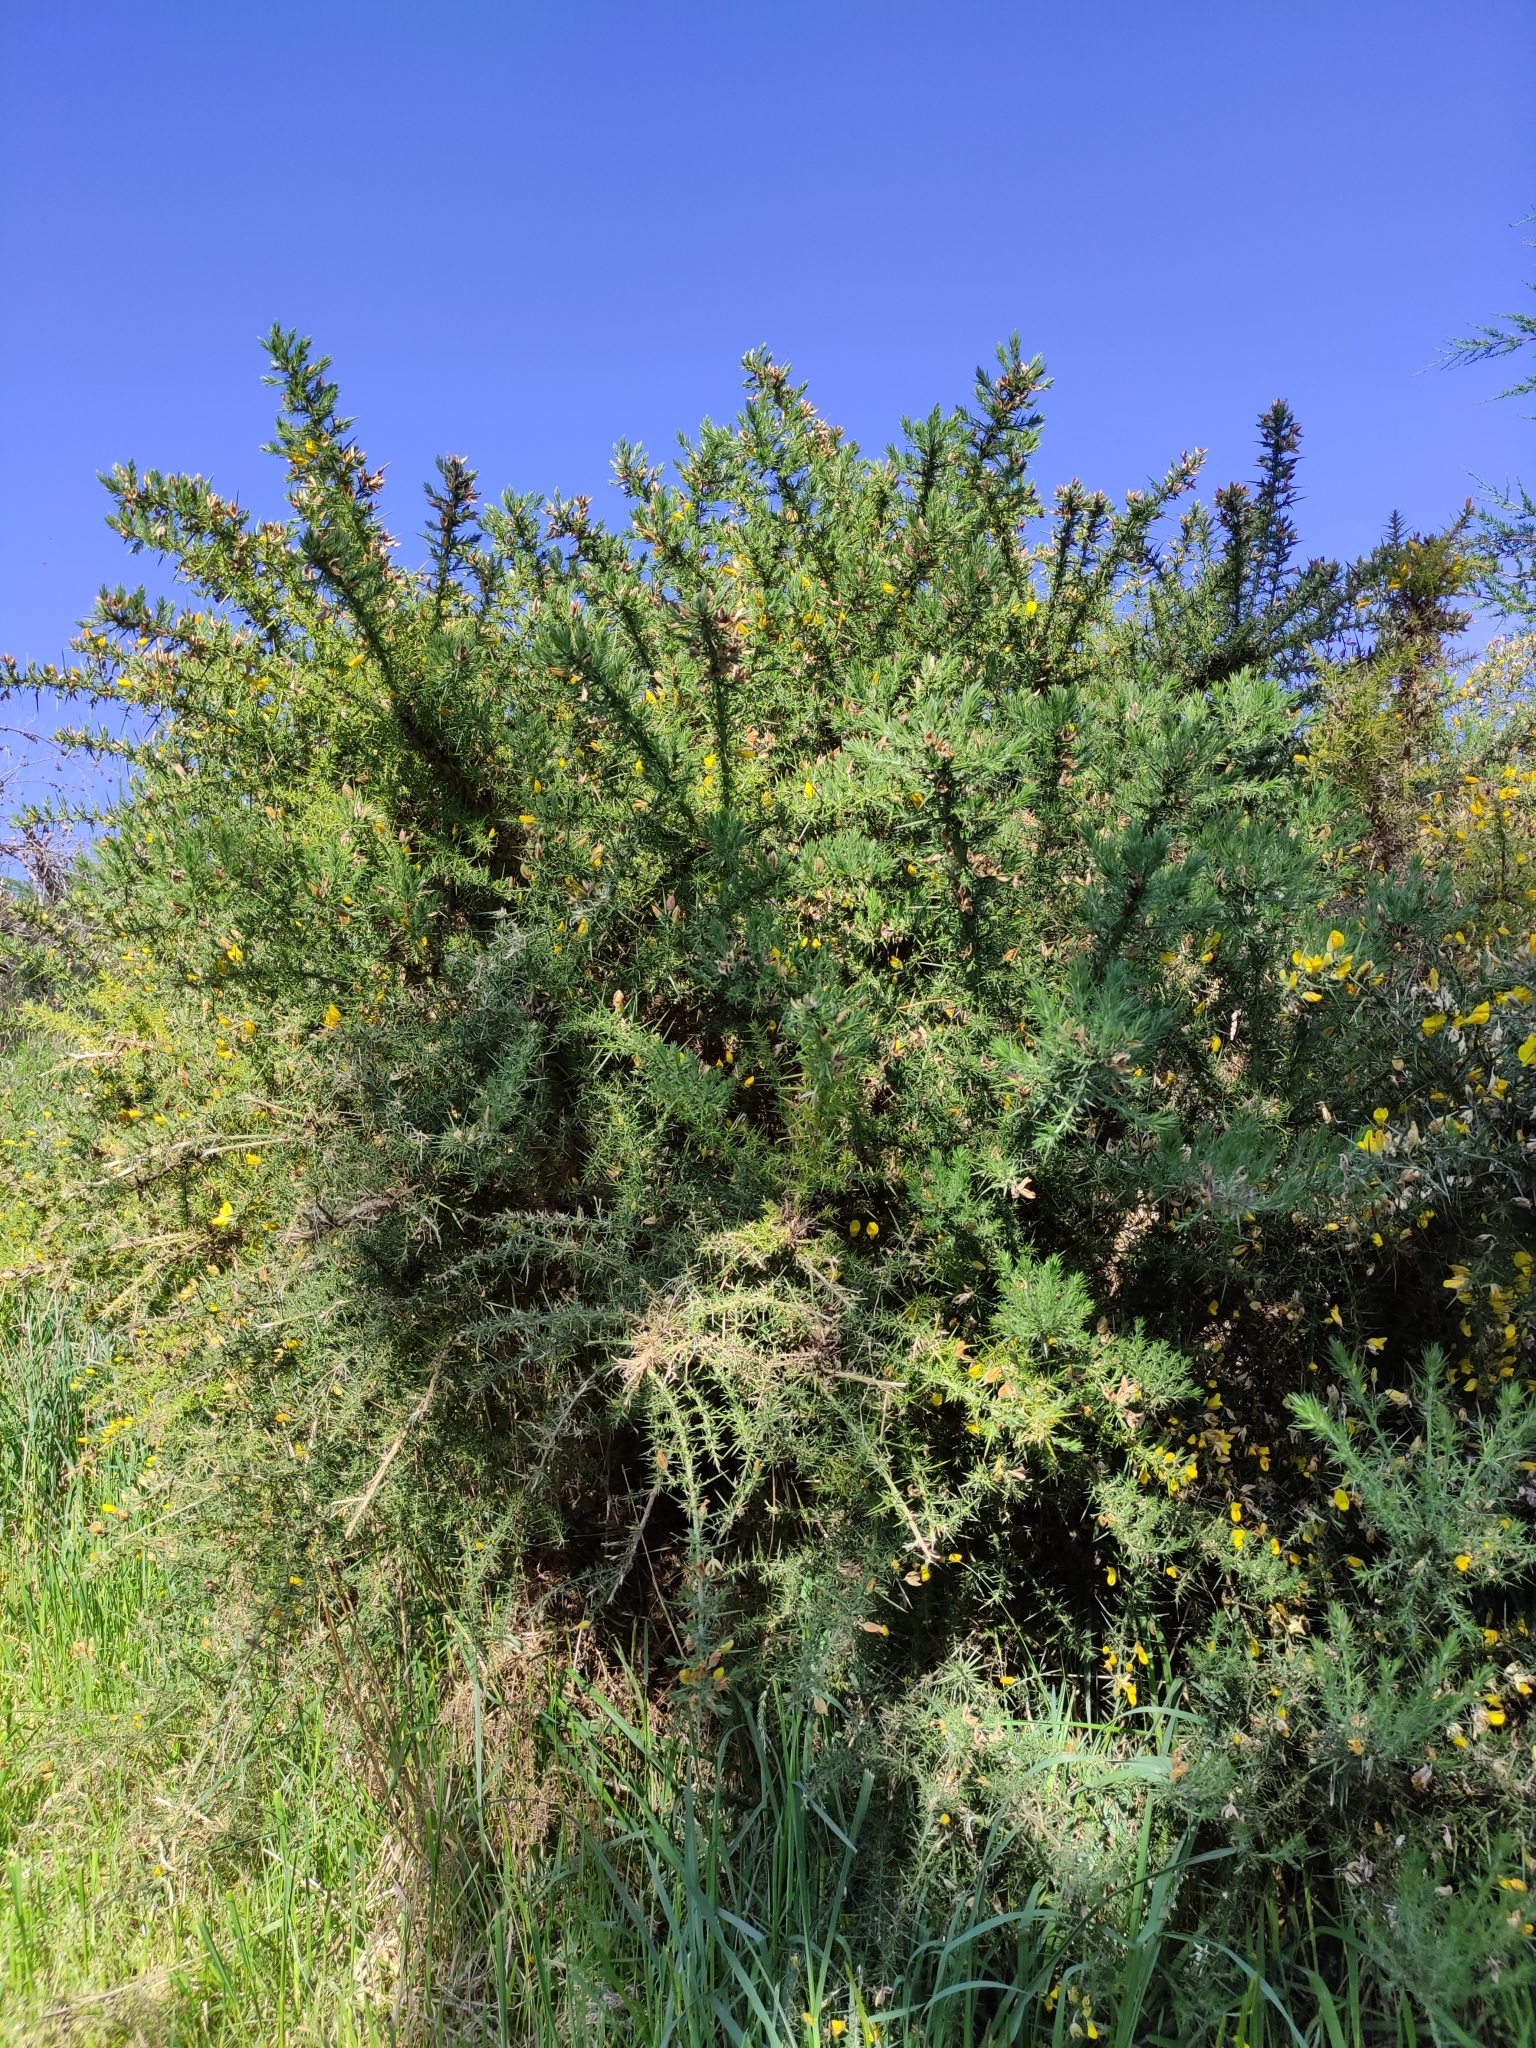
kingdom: Plantae
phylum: Tracheophyta
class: Magnoliopsida
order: Fabales
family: Fabaceae
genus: Ulex
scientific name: Ulex europaeus
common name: Common gorse
